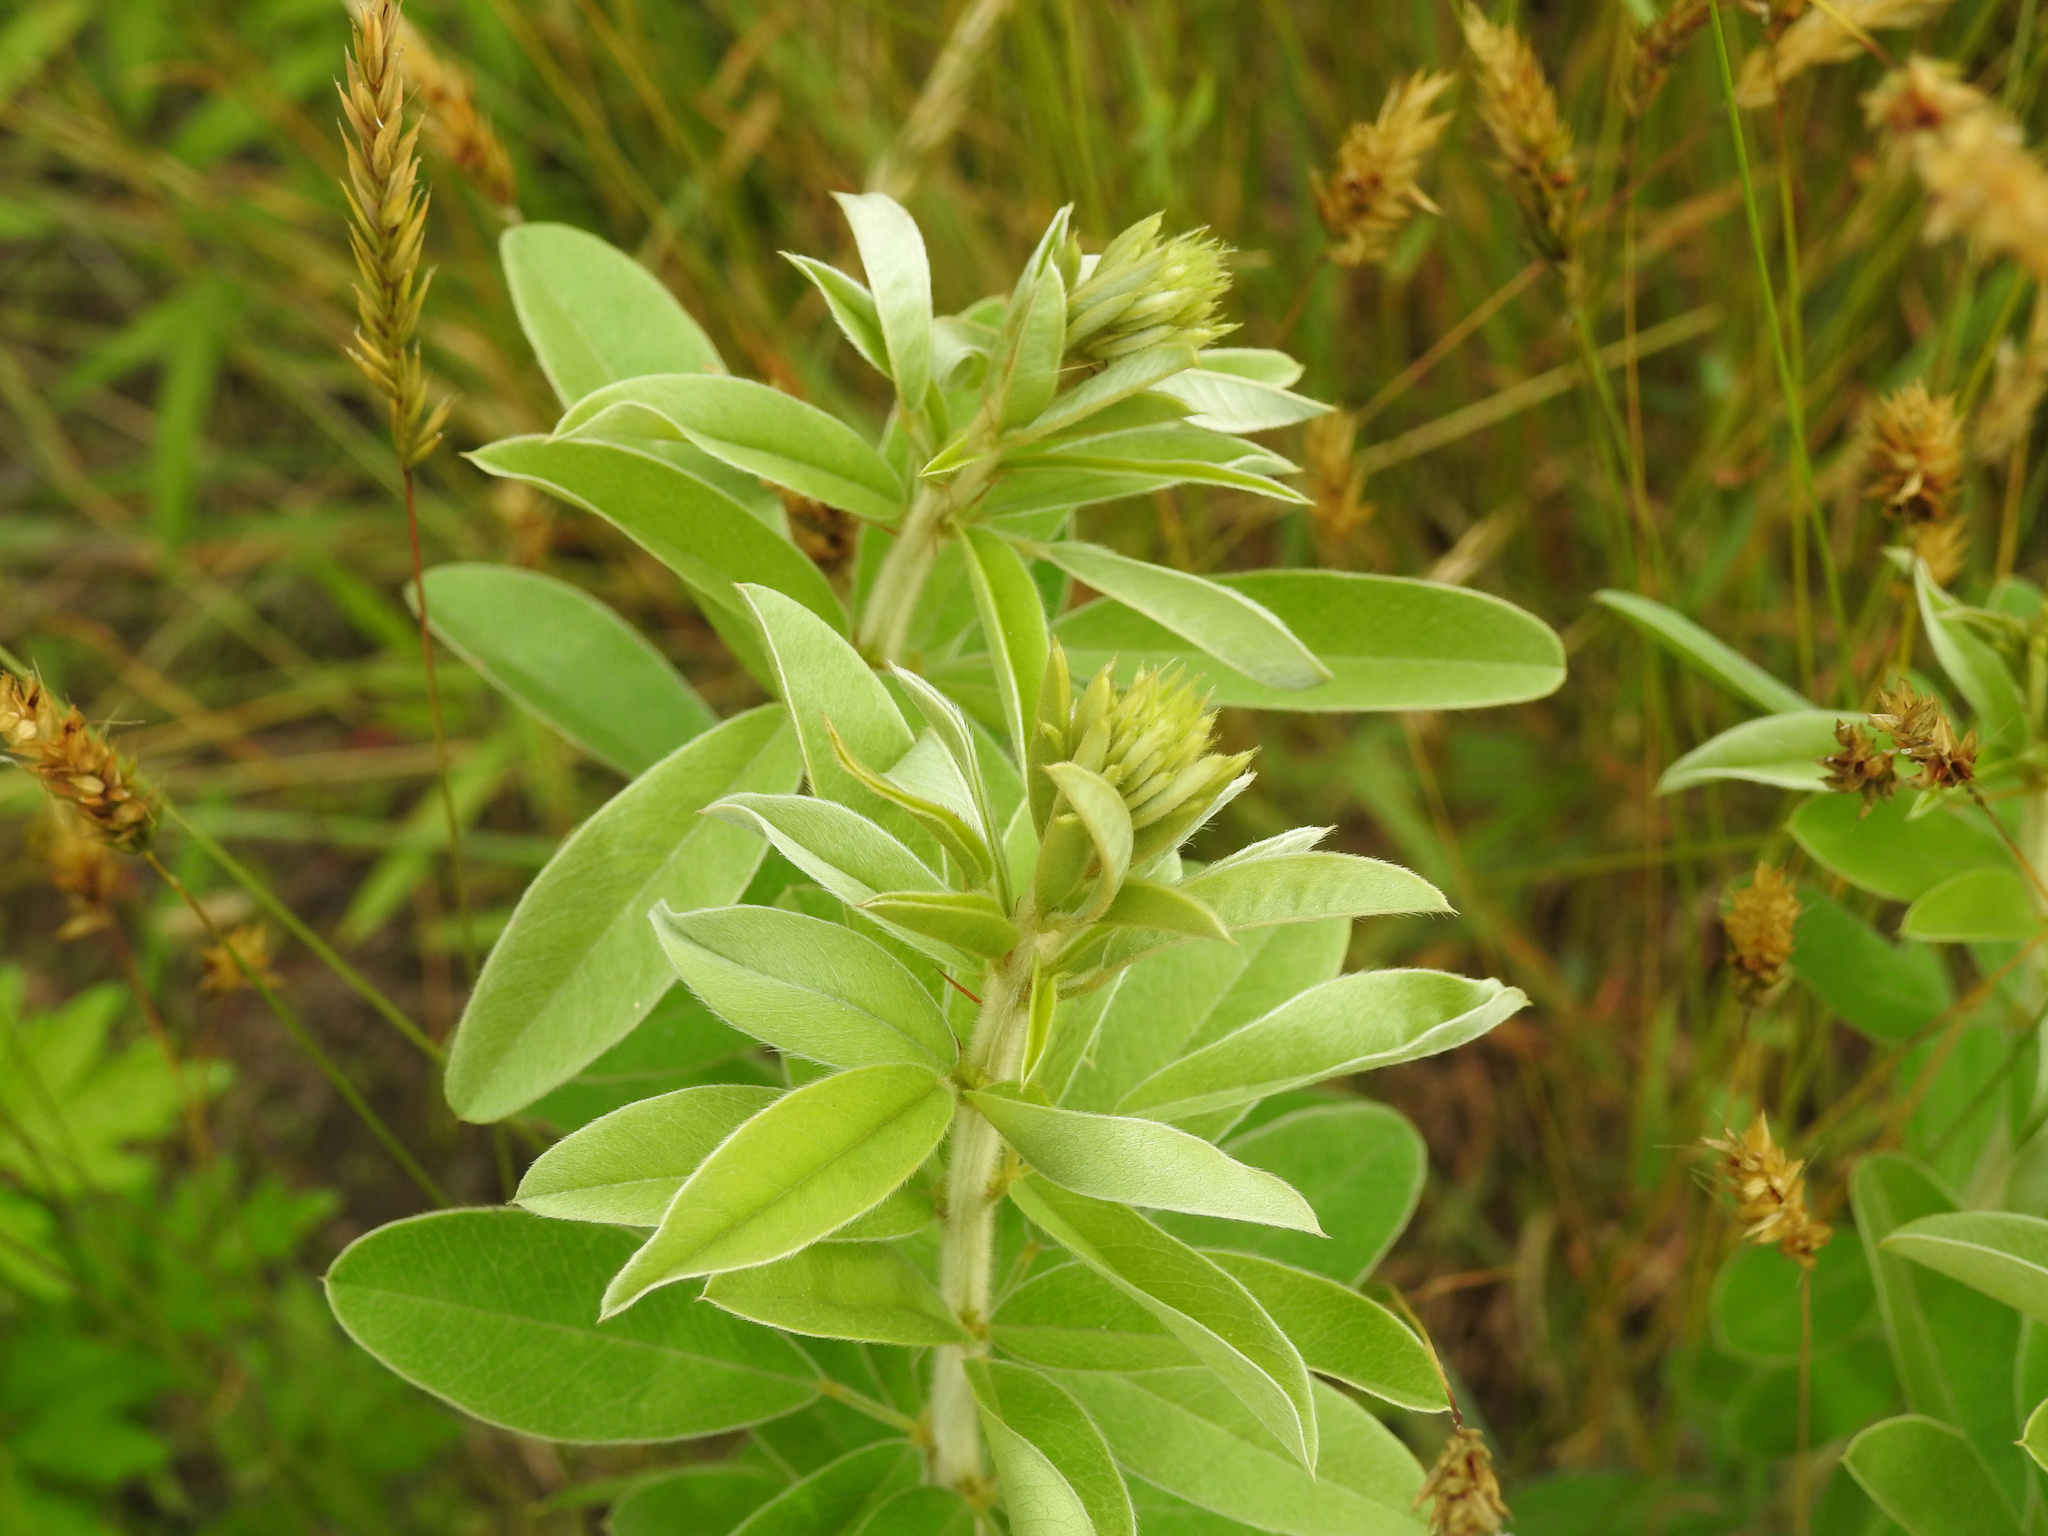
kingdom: Plantae
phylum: Tracheophyta
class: Magnoliopsida
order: Fabales
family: Fabaceae
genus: Lespedeza
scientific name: Lespedeza capitata
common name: Dusty clover
